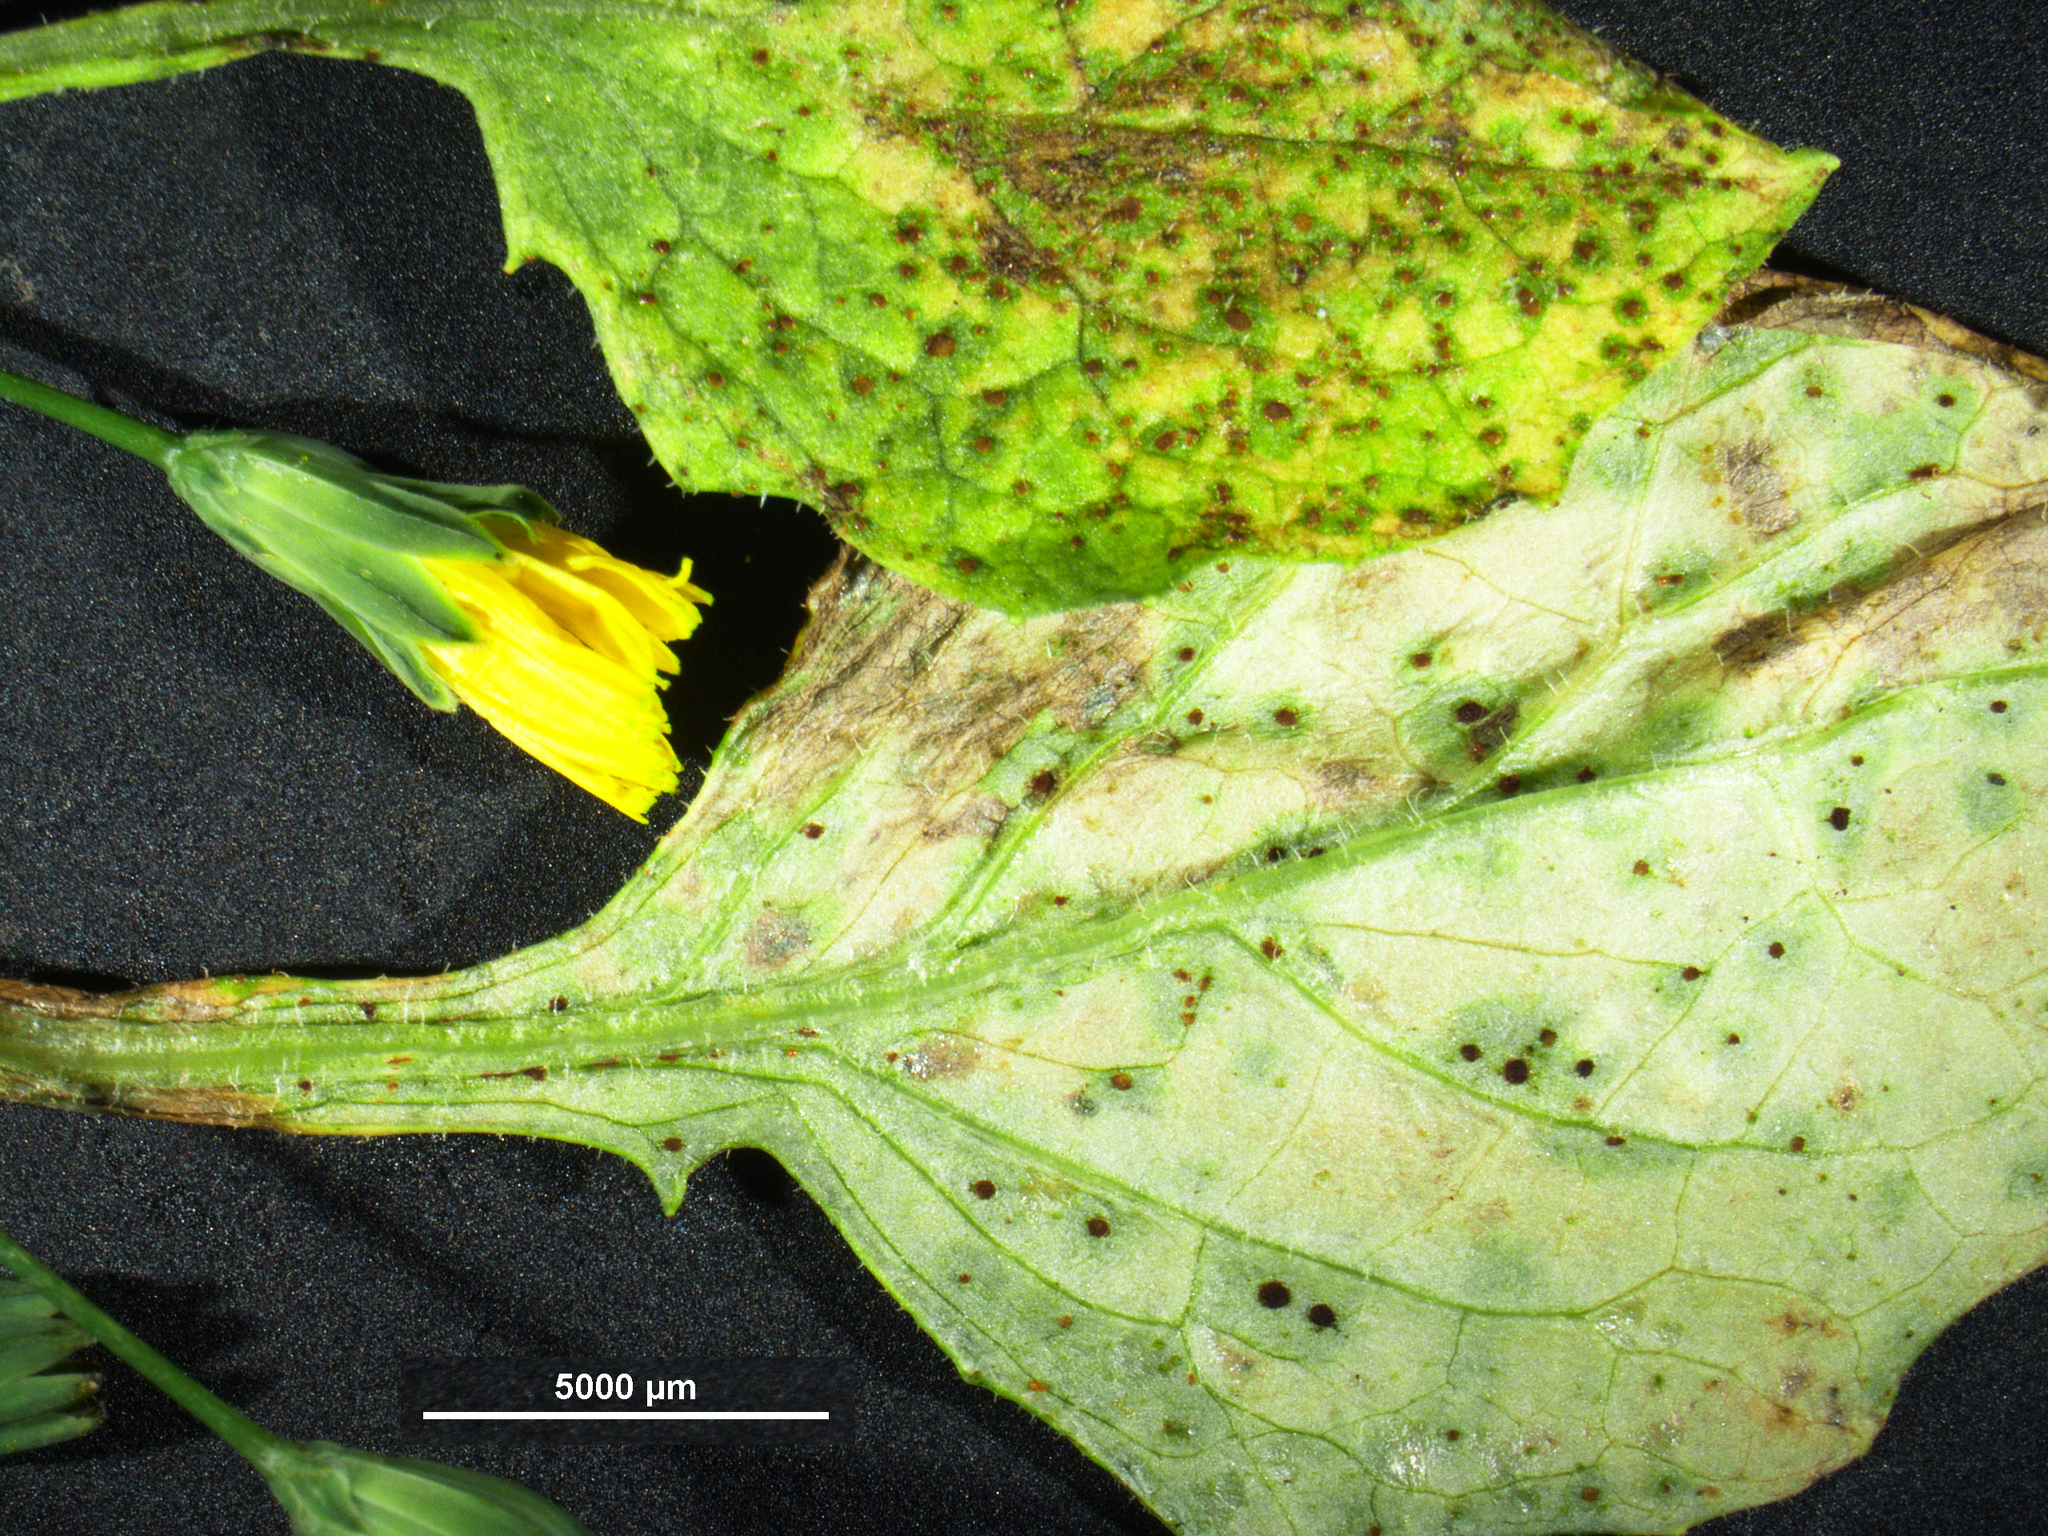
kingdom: Fungi
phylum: Basidiomycota
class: Pucciniomycetes
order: Pucciniales
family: Pucciniaceae
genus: Puccinia
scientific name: Puccinia lapsanae
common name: Nipplewort rust
